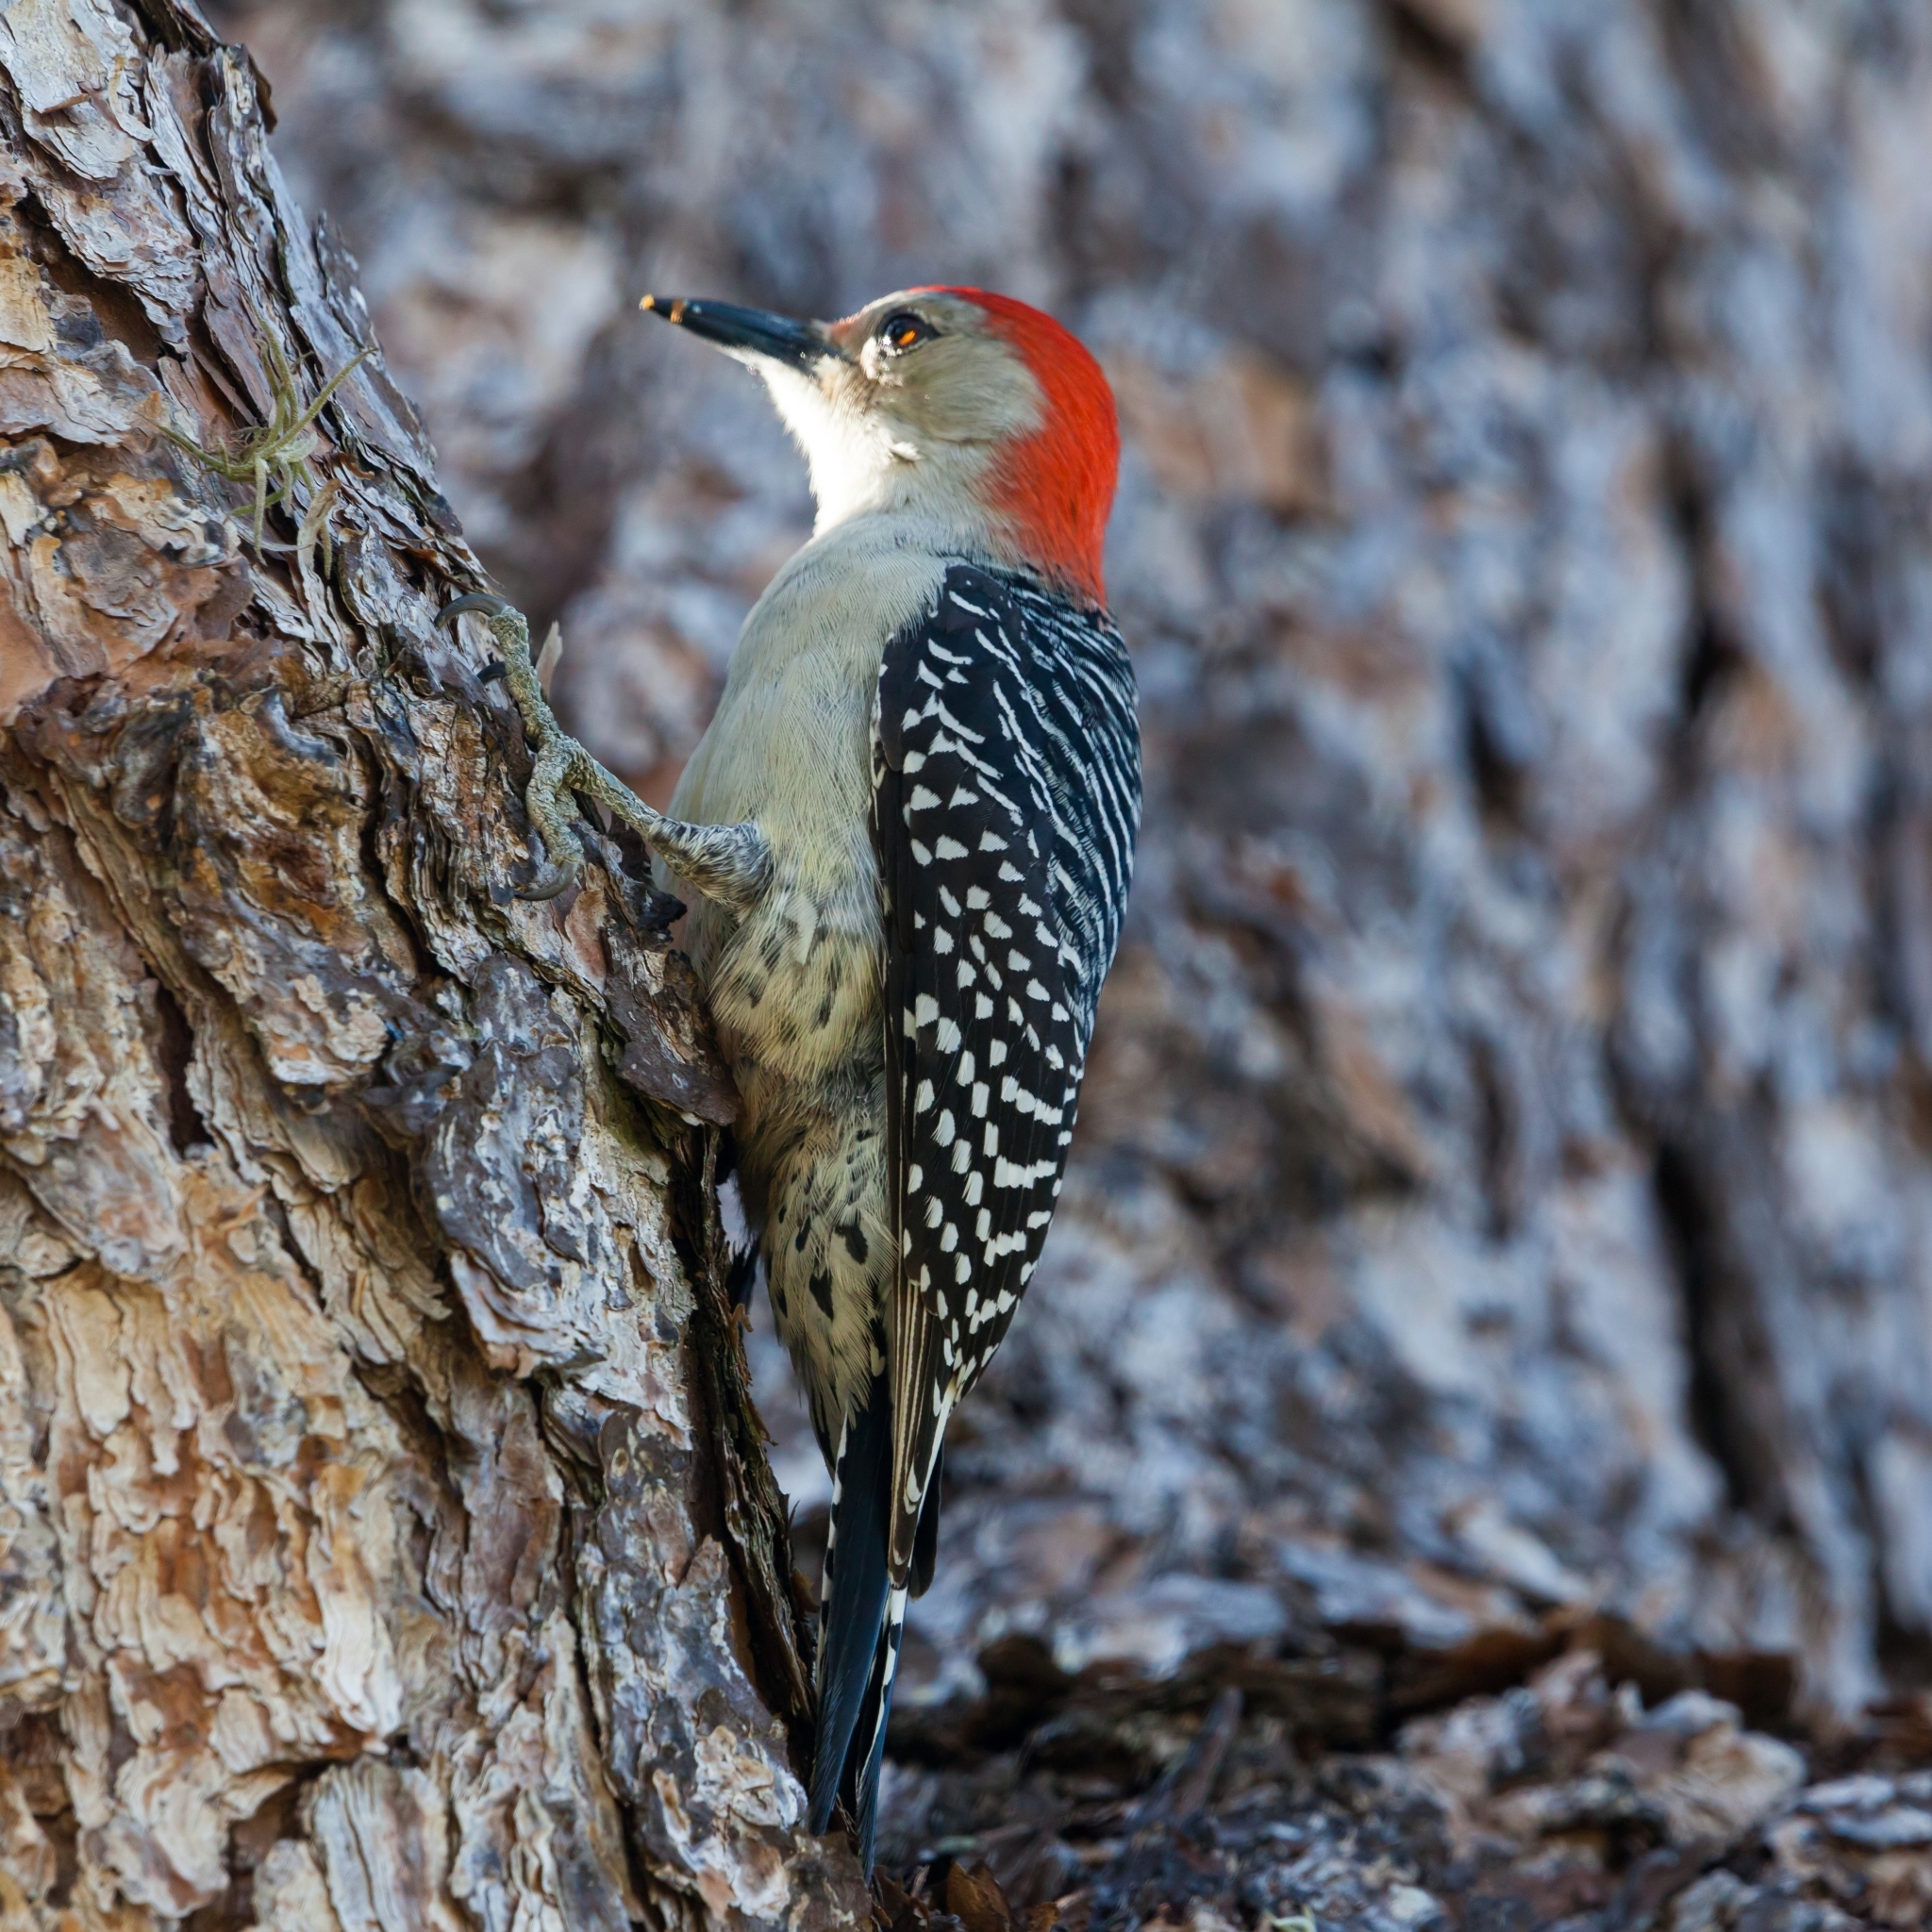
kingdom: Animalia
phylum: Chordata
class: Aves
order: Piciformes
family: Picidae
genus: Melanerpes
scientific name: Melanerpes carolinus
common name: Red-bellied woodpecker
